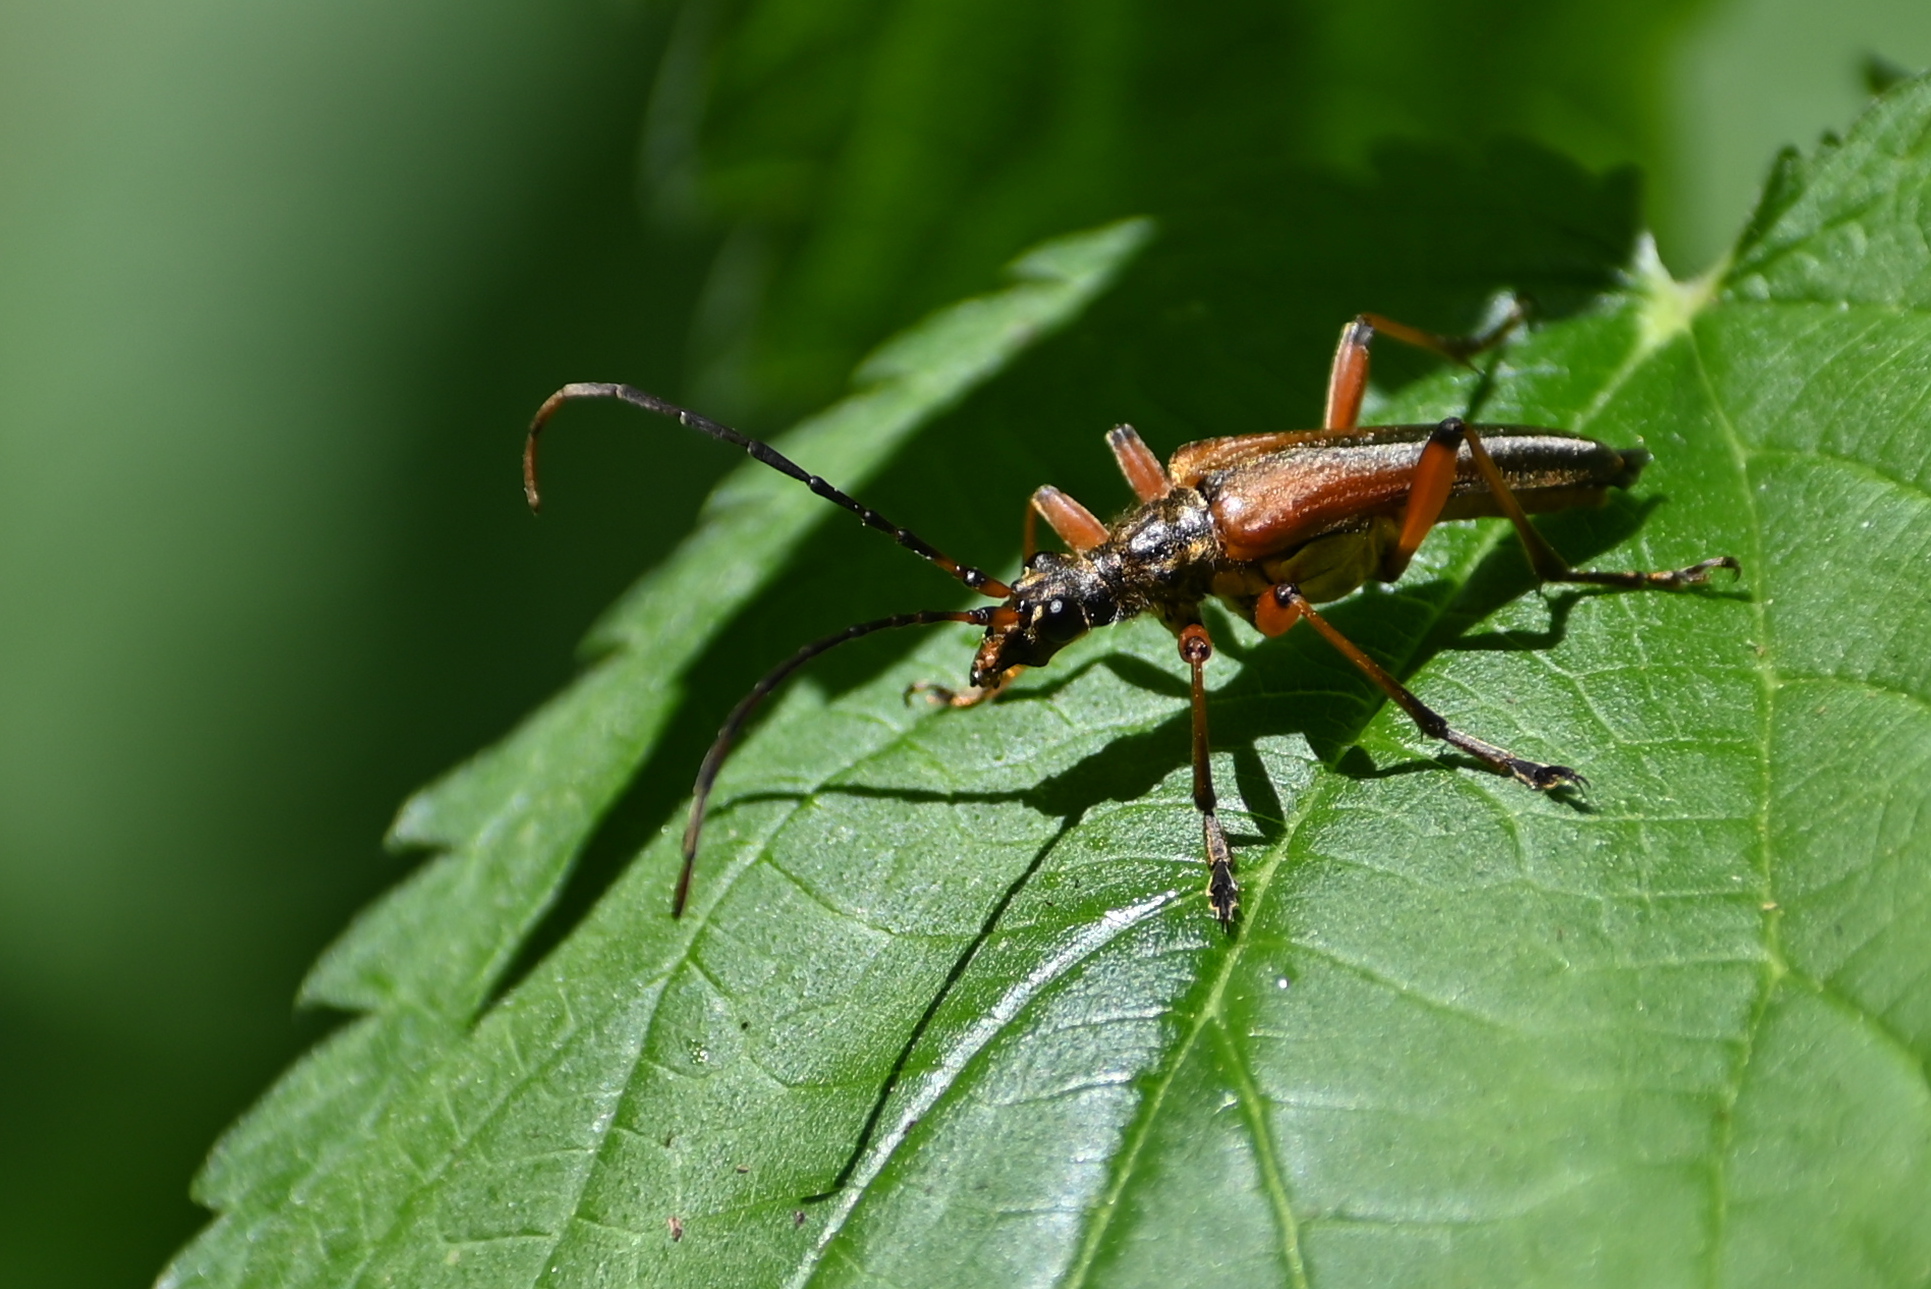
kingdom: Animalia
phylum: Arthropoda
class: Insecta
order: Coleoptera
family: Cerambycidae
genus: Stenocorus
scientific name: Stenocorus meridianus
